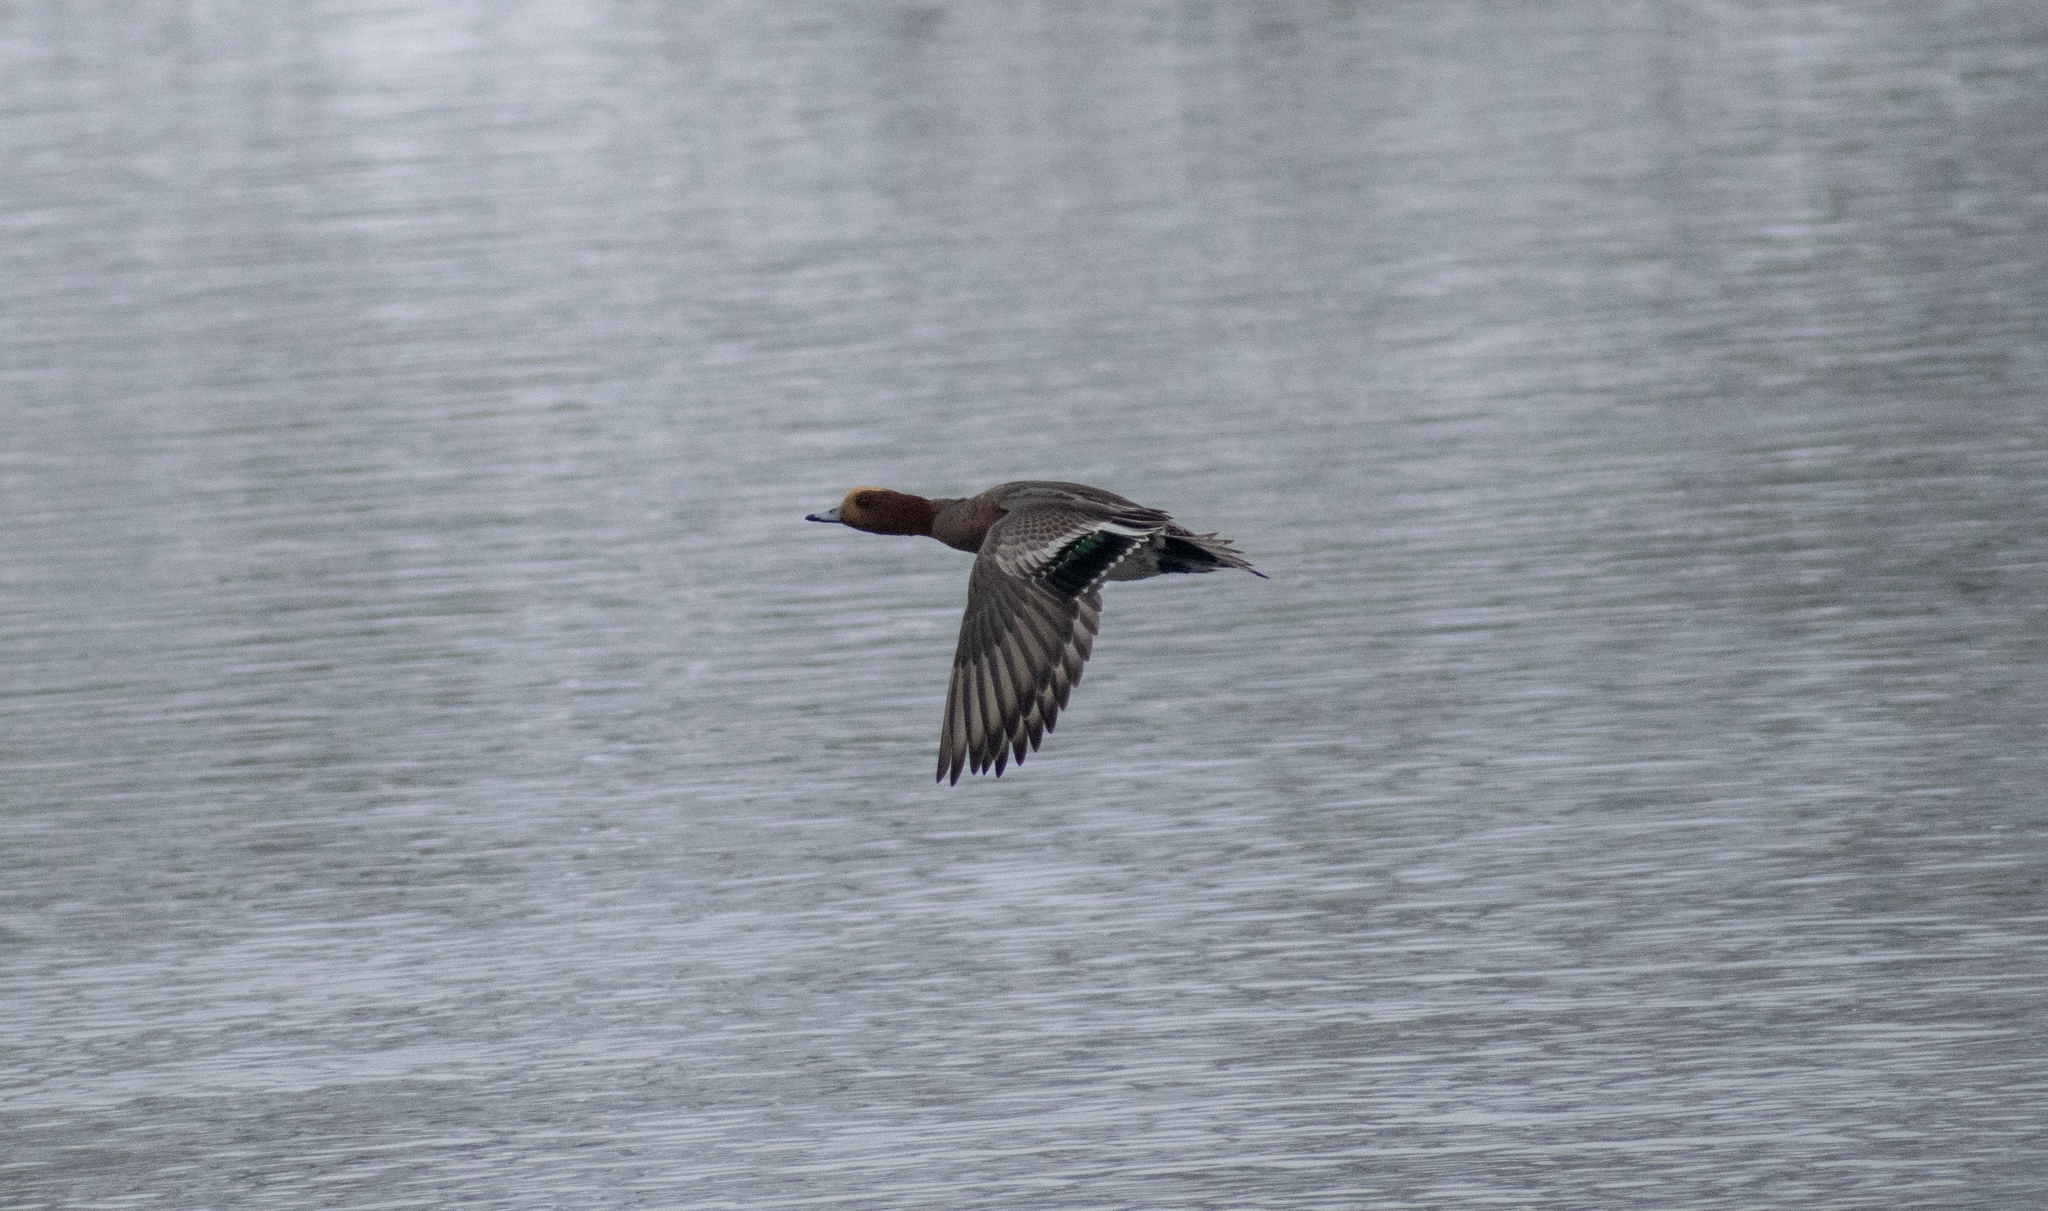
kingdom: Animalia
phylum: Chordata
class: Aves
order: Anseriformes
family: Anatidae
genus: Mareca
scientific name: Mareca penelope
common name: Eurasian wigeon
